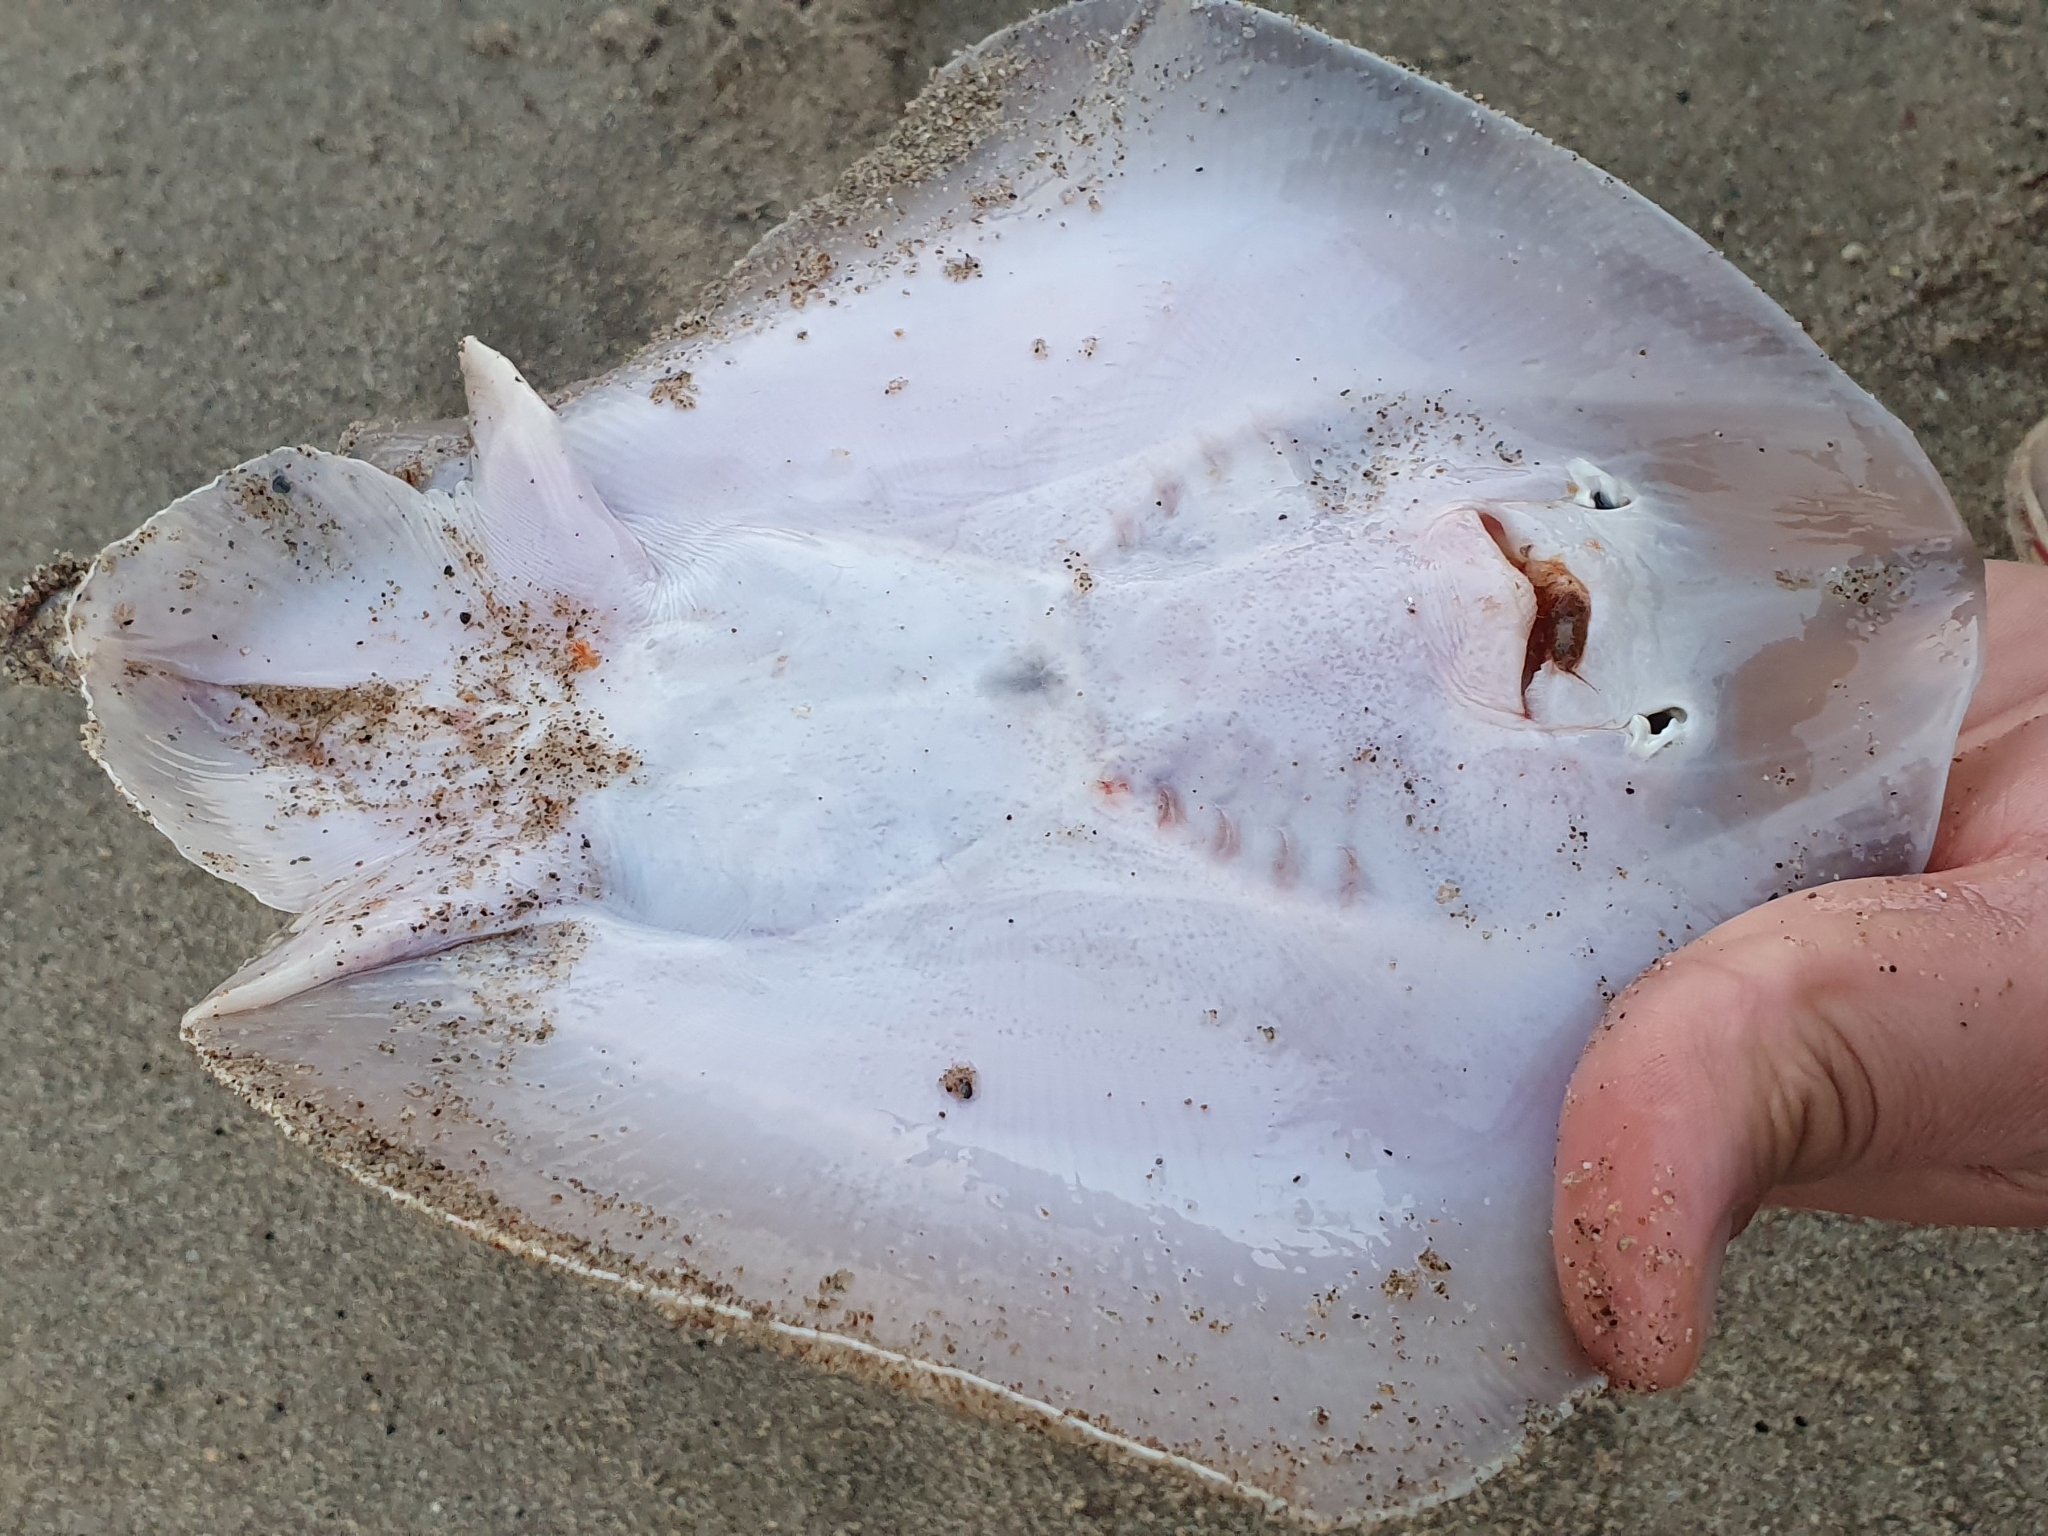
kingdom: Animalia
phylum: Chordata
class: Elasmobranchii
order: Rajiformes
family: Rajidae
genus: Raja
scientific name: Raja radula
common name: Rough ray
